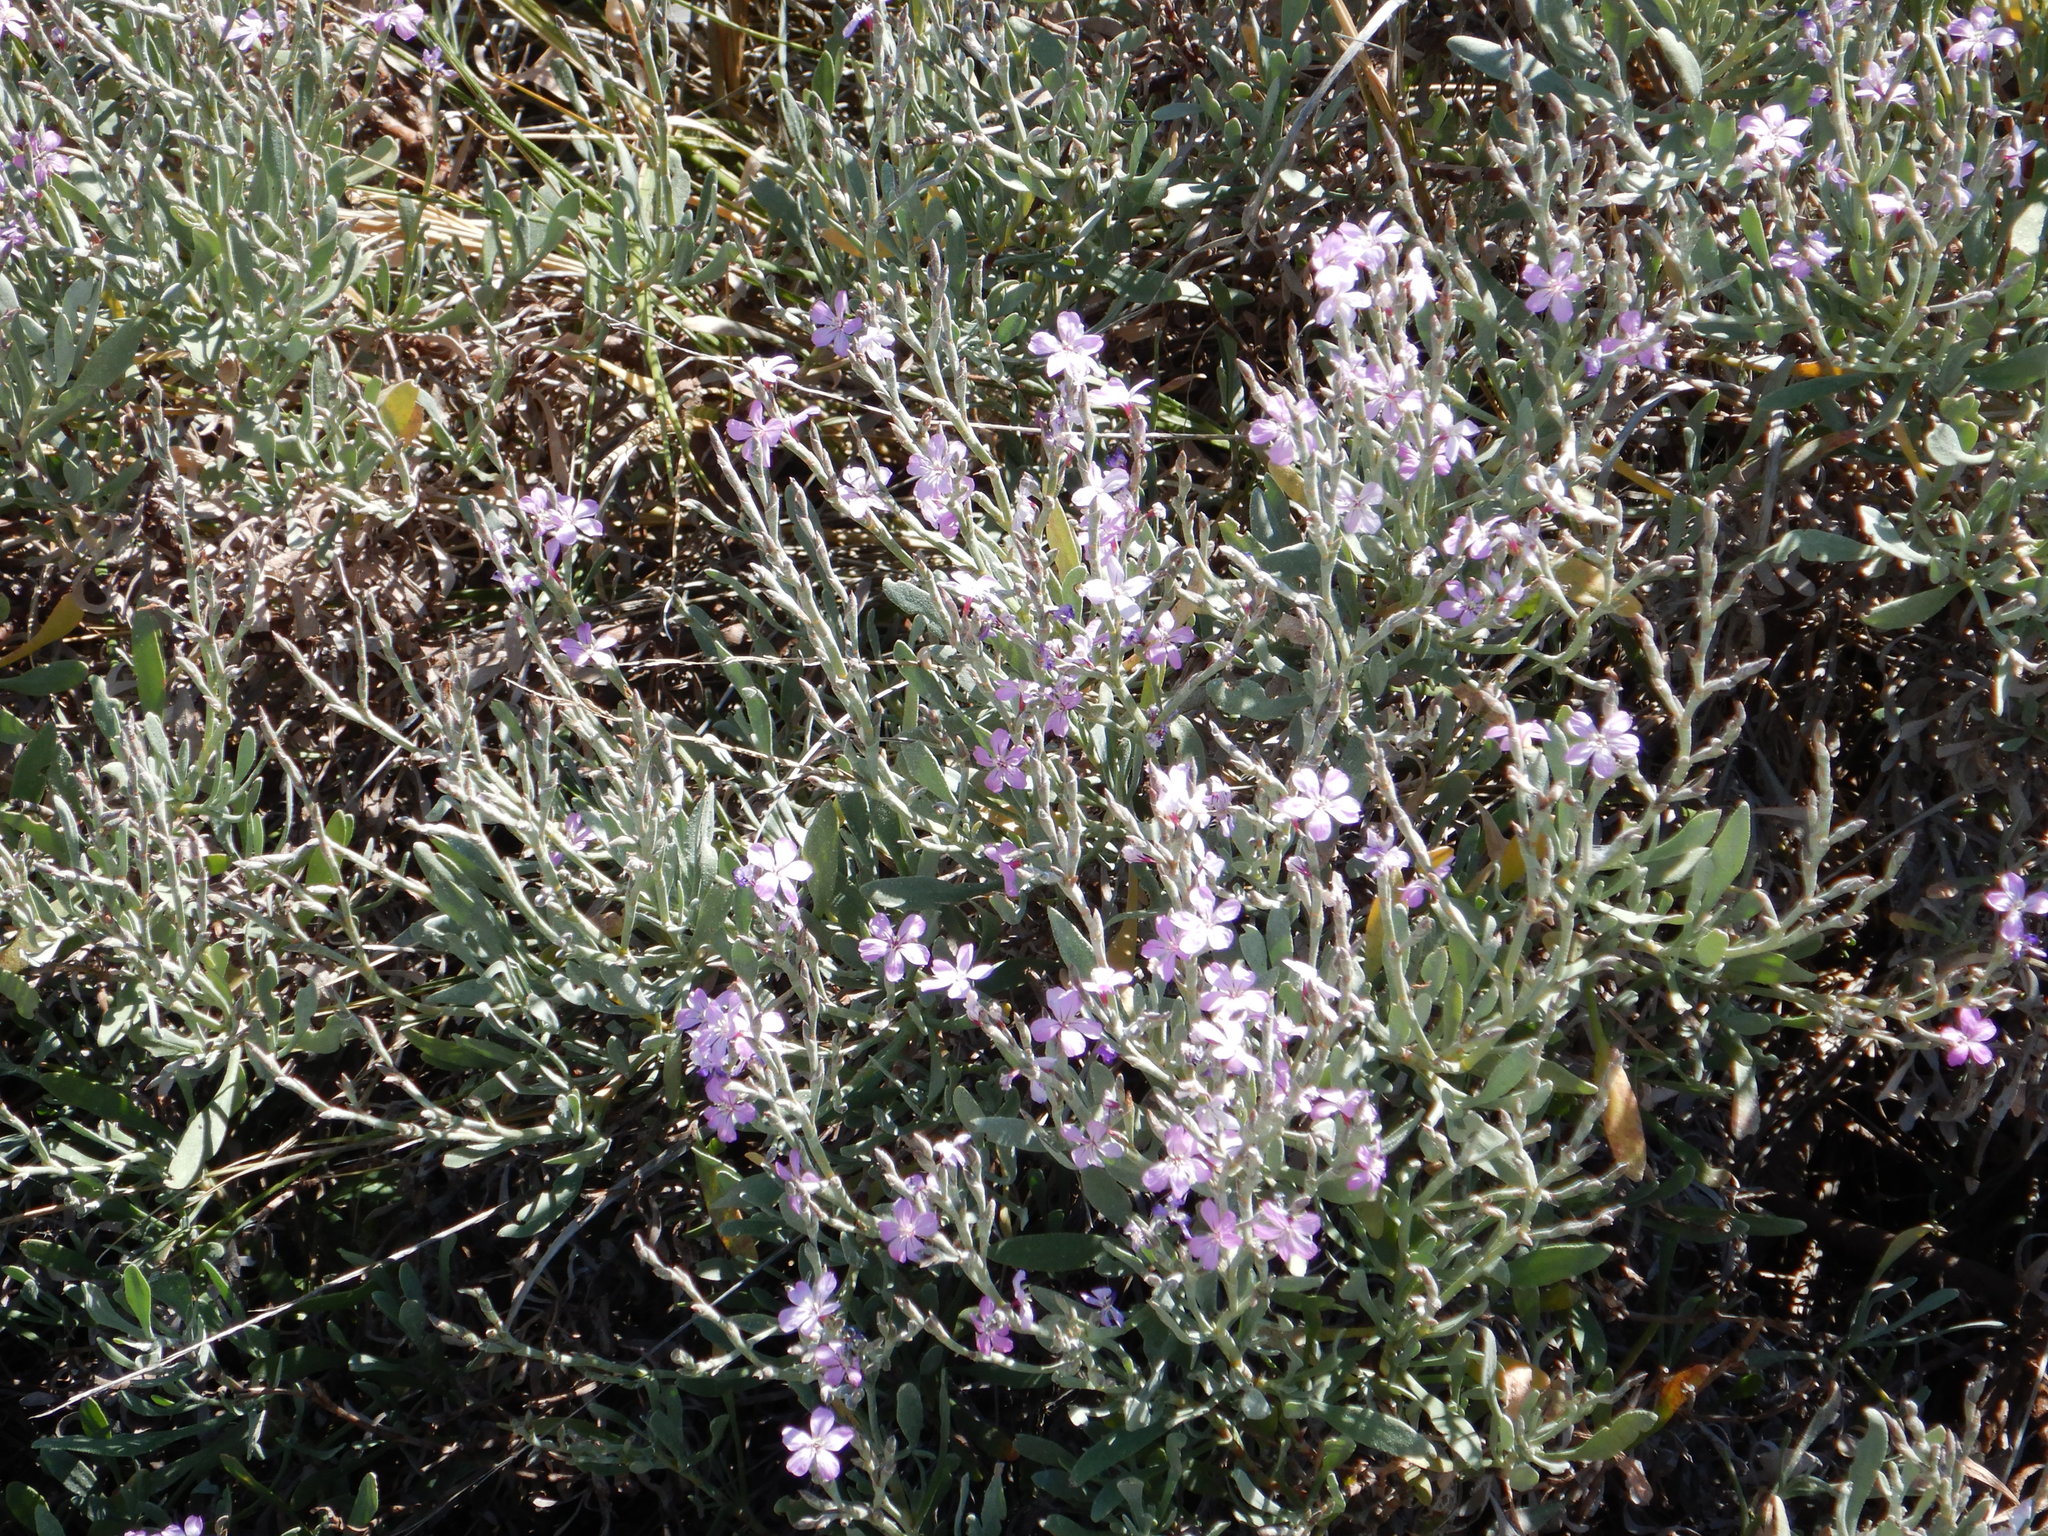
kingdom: Plantae
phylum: Tracheophyta
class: Magnoliopsida
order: Caryophyllales
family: Plumbaginaceae
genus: Limoniastrum
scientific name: Limoniastrum monopetalum
